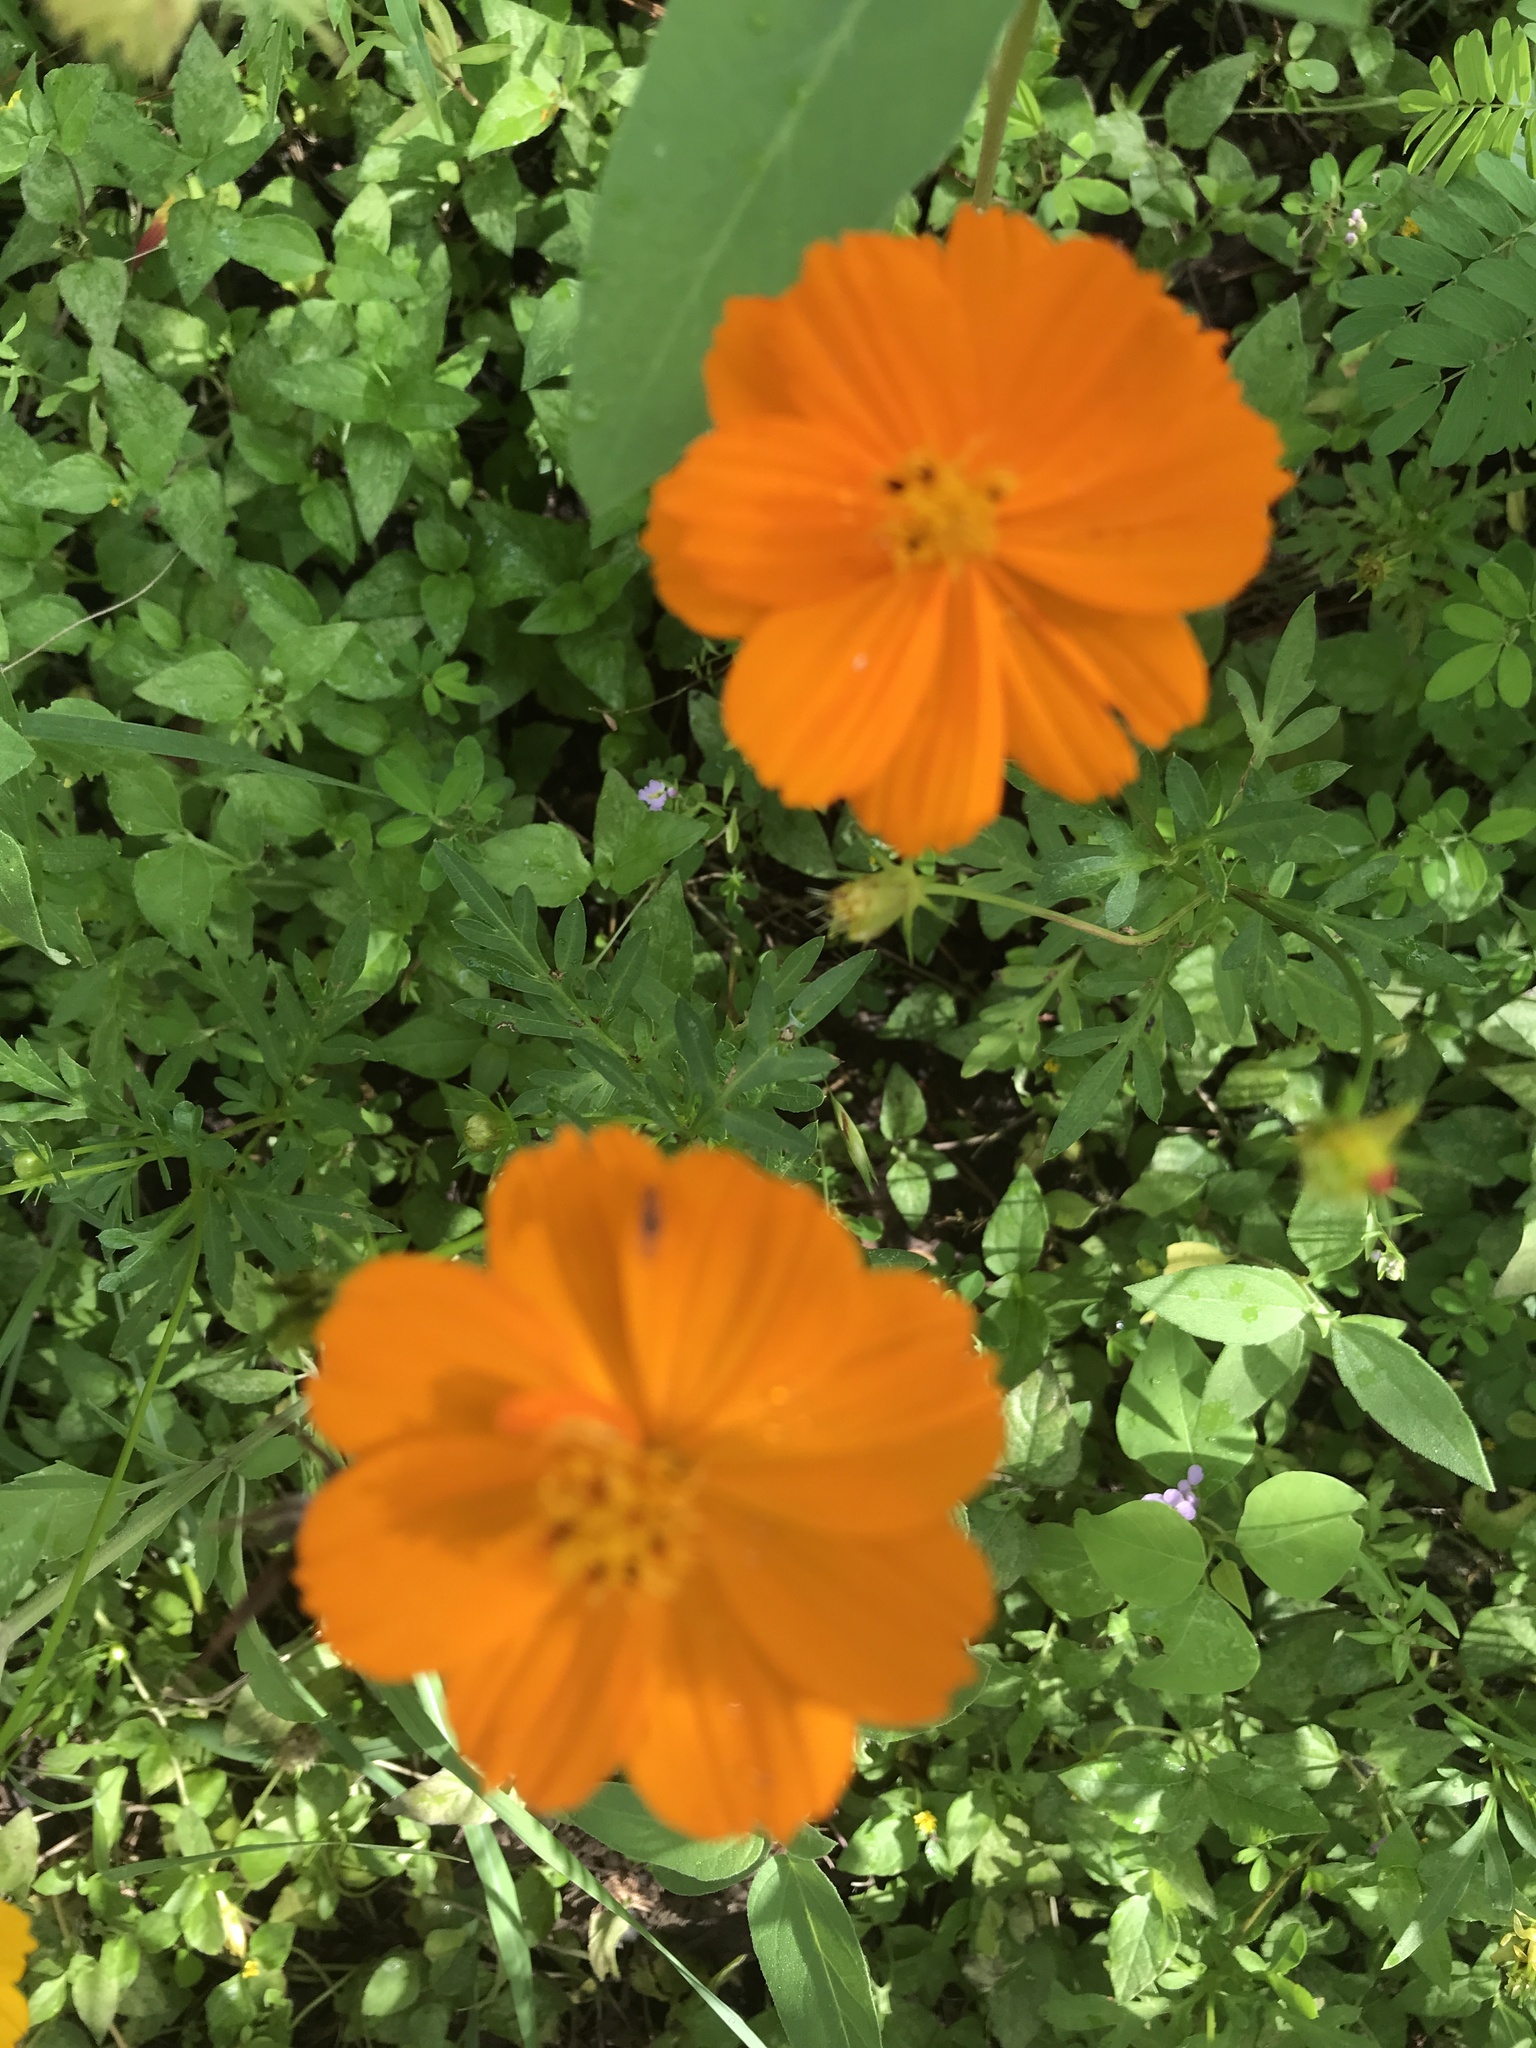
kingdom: Plantae
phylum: Tracheophyta
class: Magnoliopsida
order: Asterales
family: Asteraceae
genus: Cosmos
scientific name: Cosmos sulphureus
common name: Sulphur cosmos
